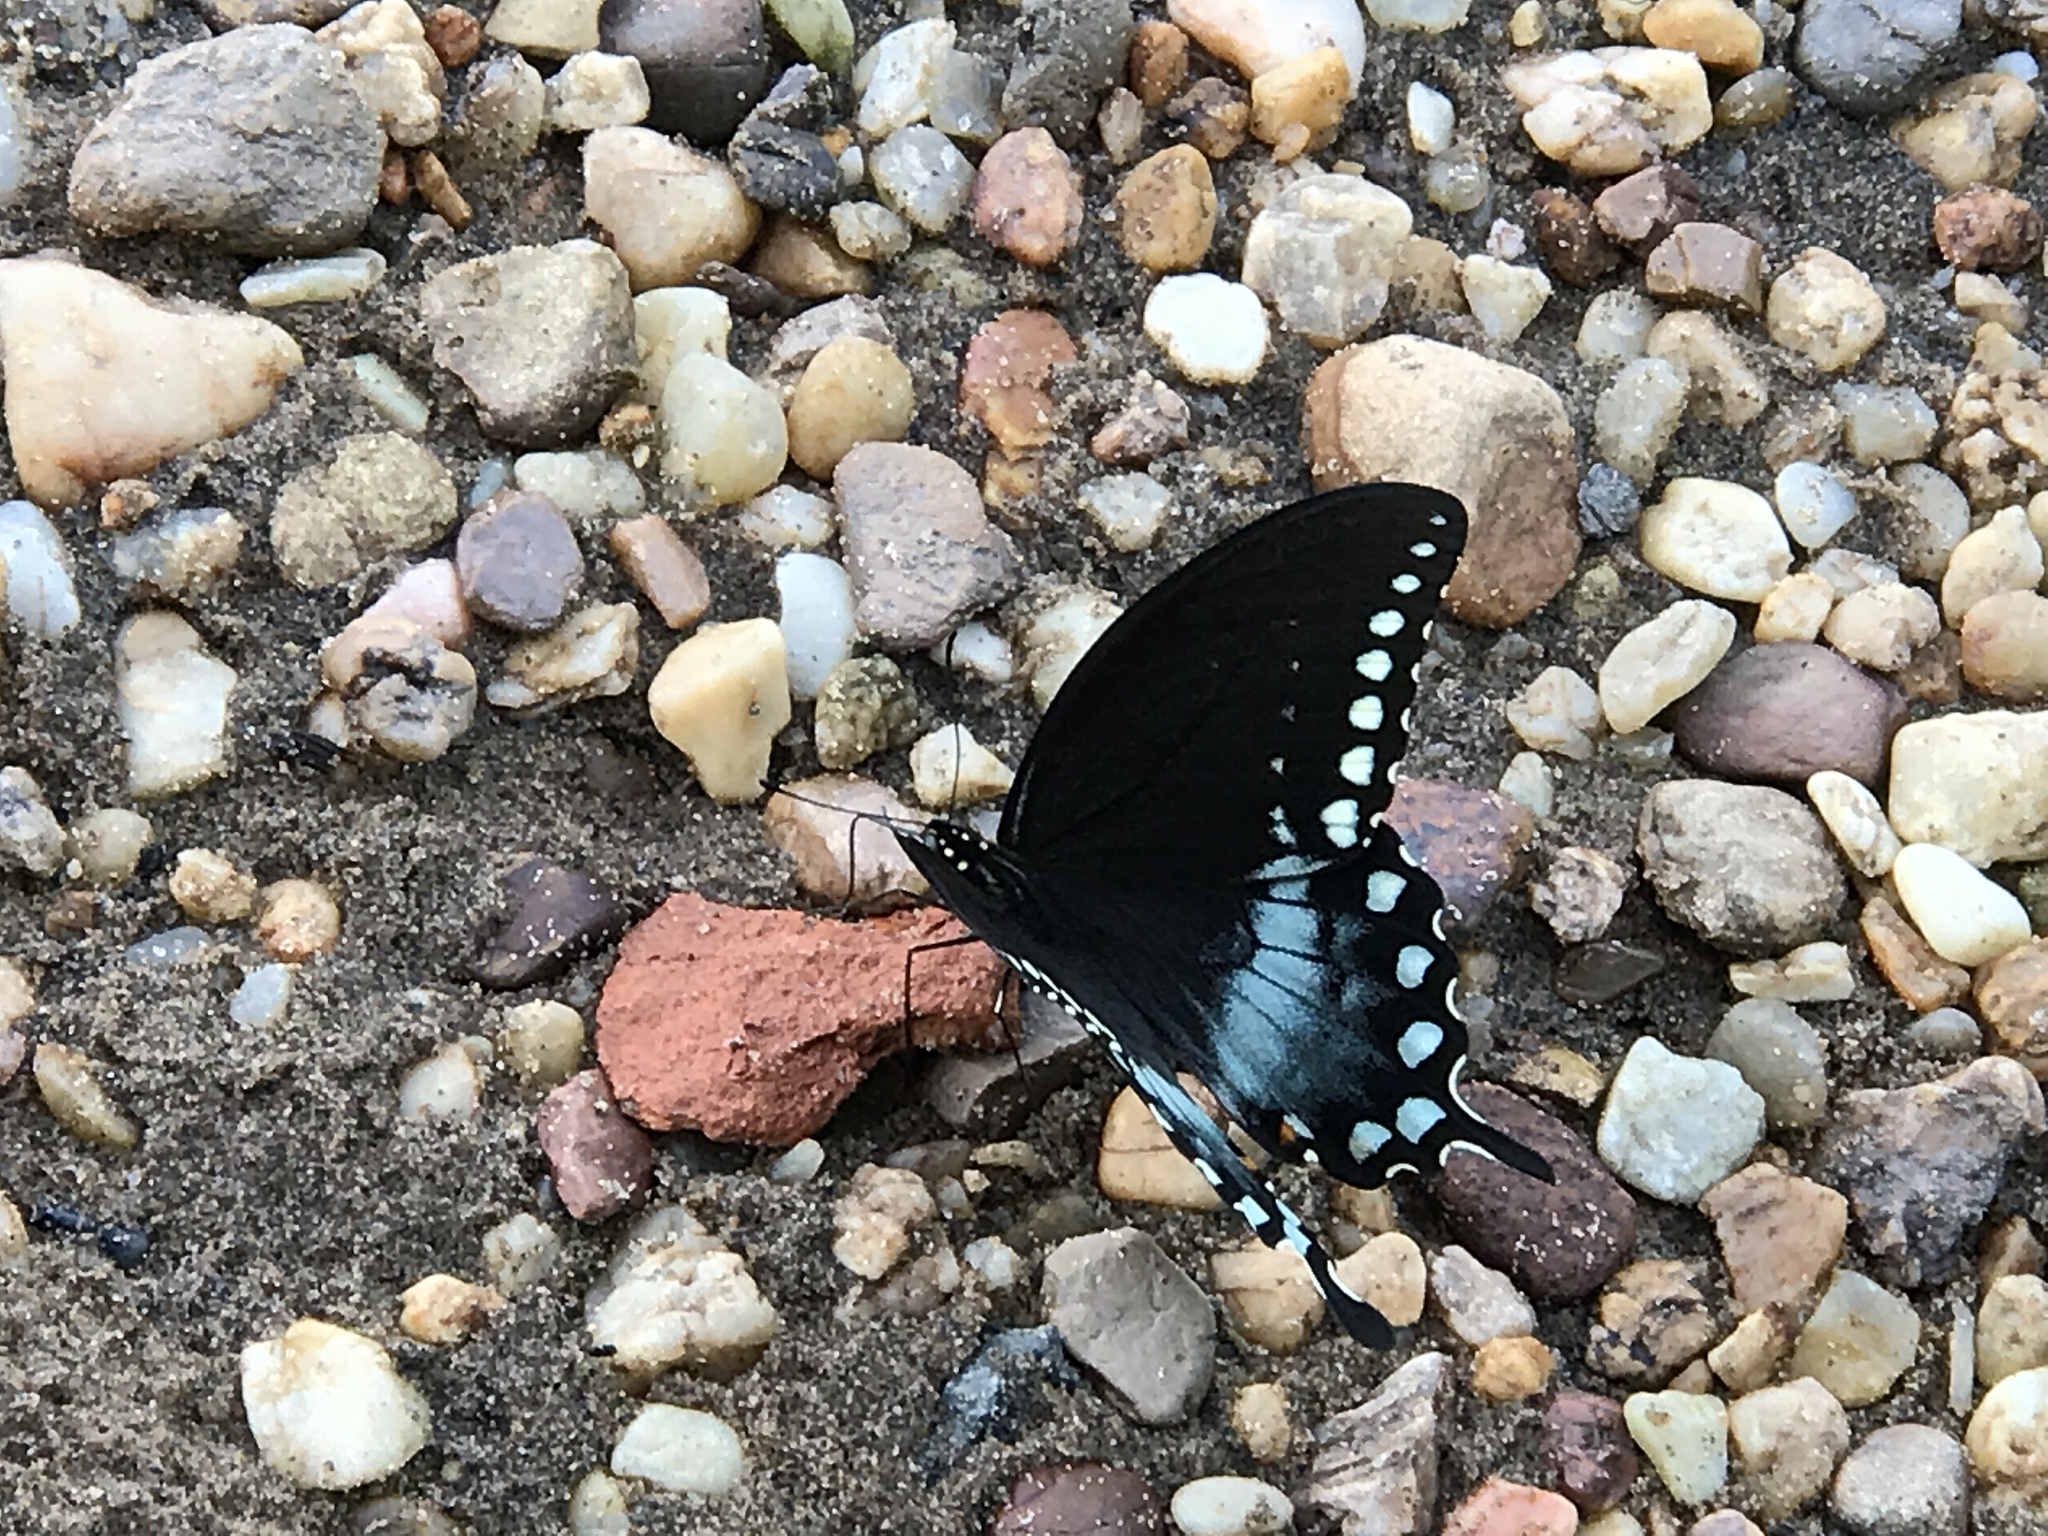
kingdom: Animalia
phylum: Arthropoda
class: Insecta
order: Lepidoptera
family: Papilionidae
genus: Papilio
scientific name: Papilio troilus
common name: Spicebush swallowtail
